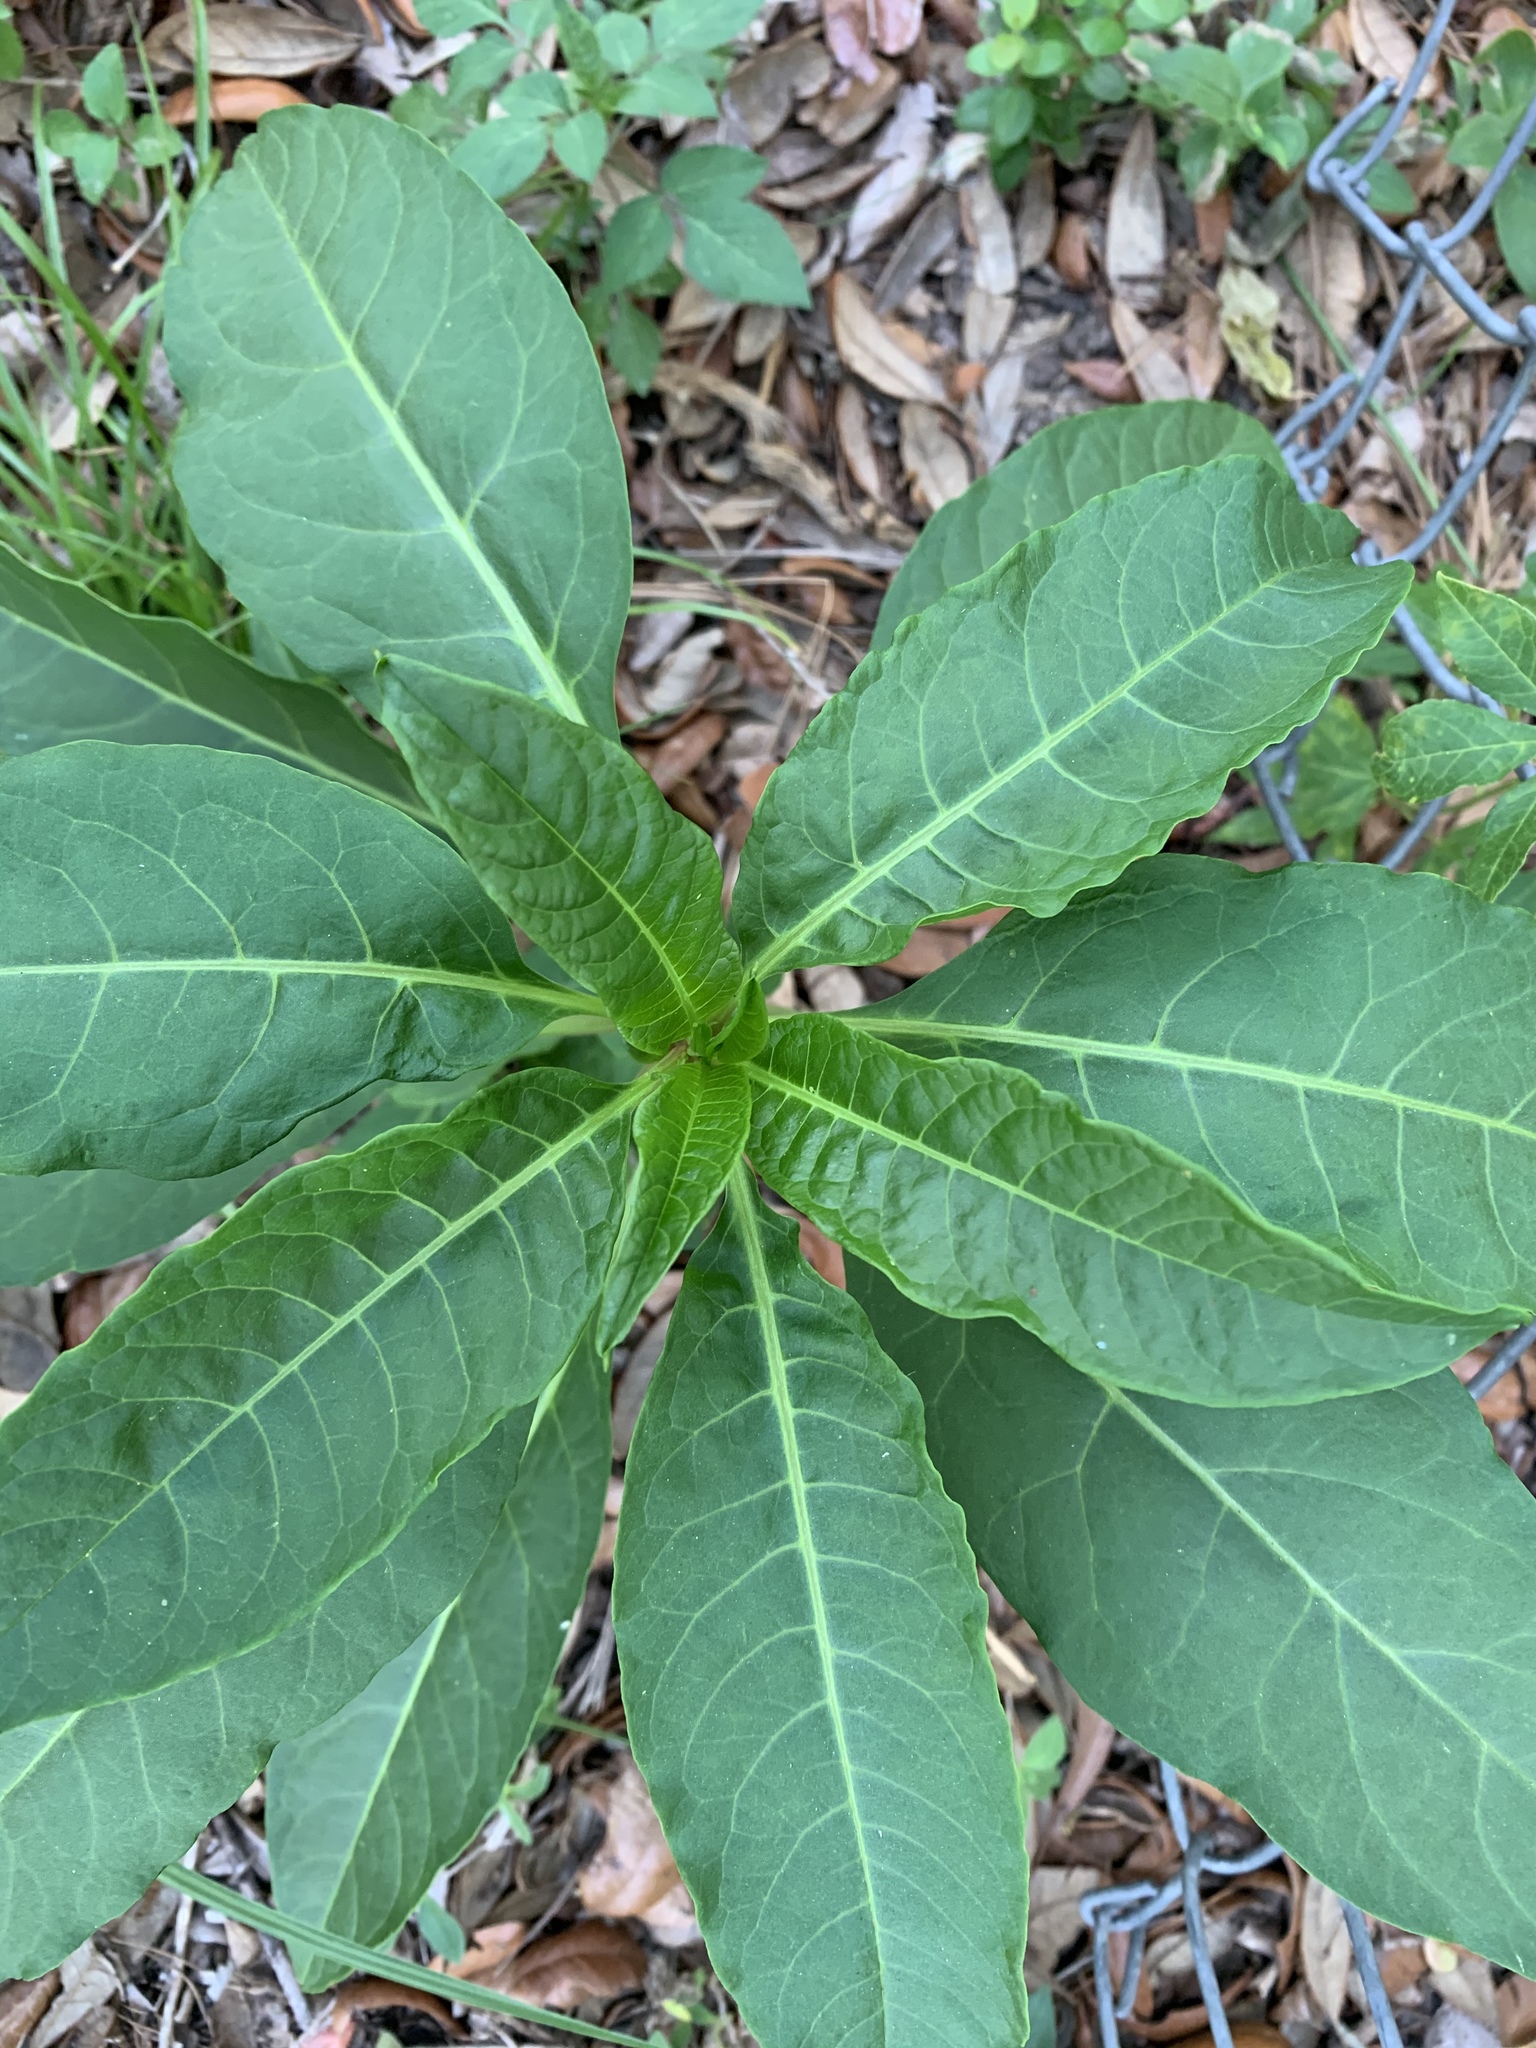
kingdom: Plantae
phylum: Tracheophyta
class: Magnoliopsida
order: Caryophyllales
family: Phytolaccaceae
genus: Phytolacca
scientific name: Phytolacca americana
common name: American pokeweed
